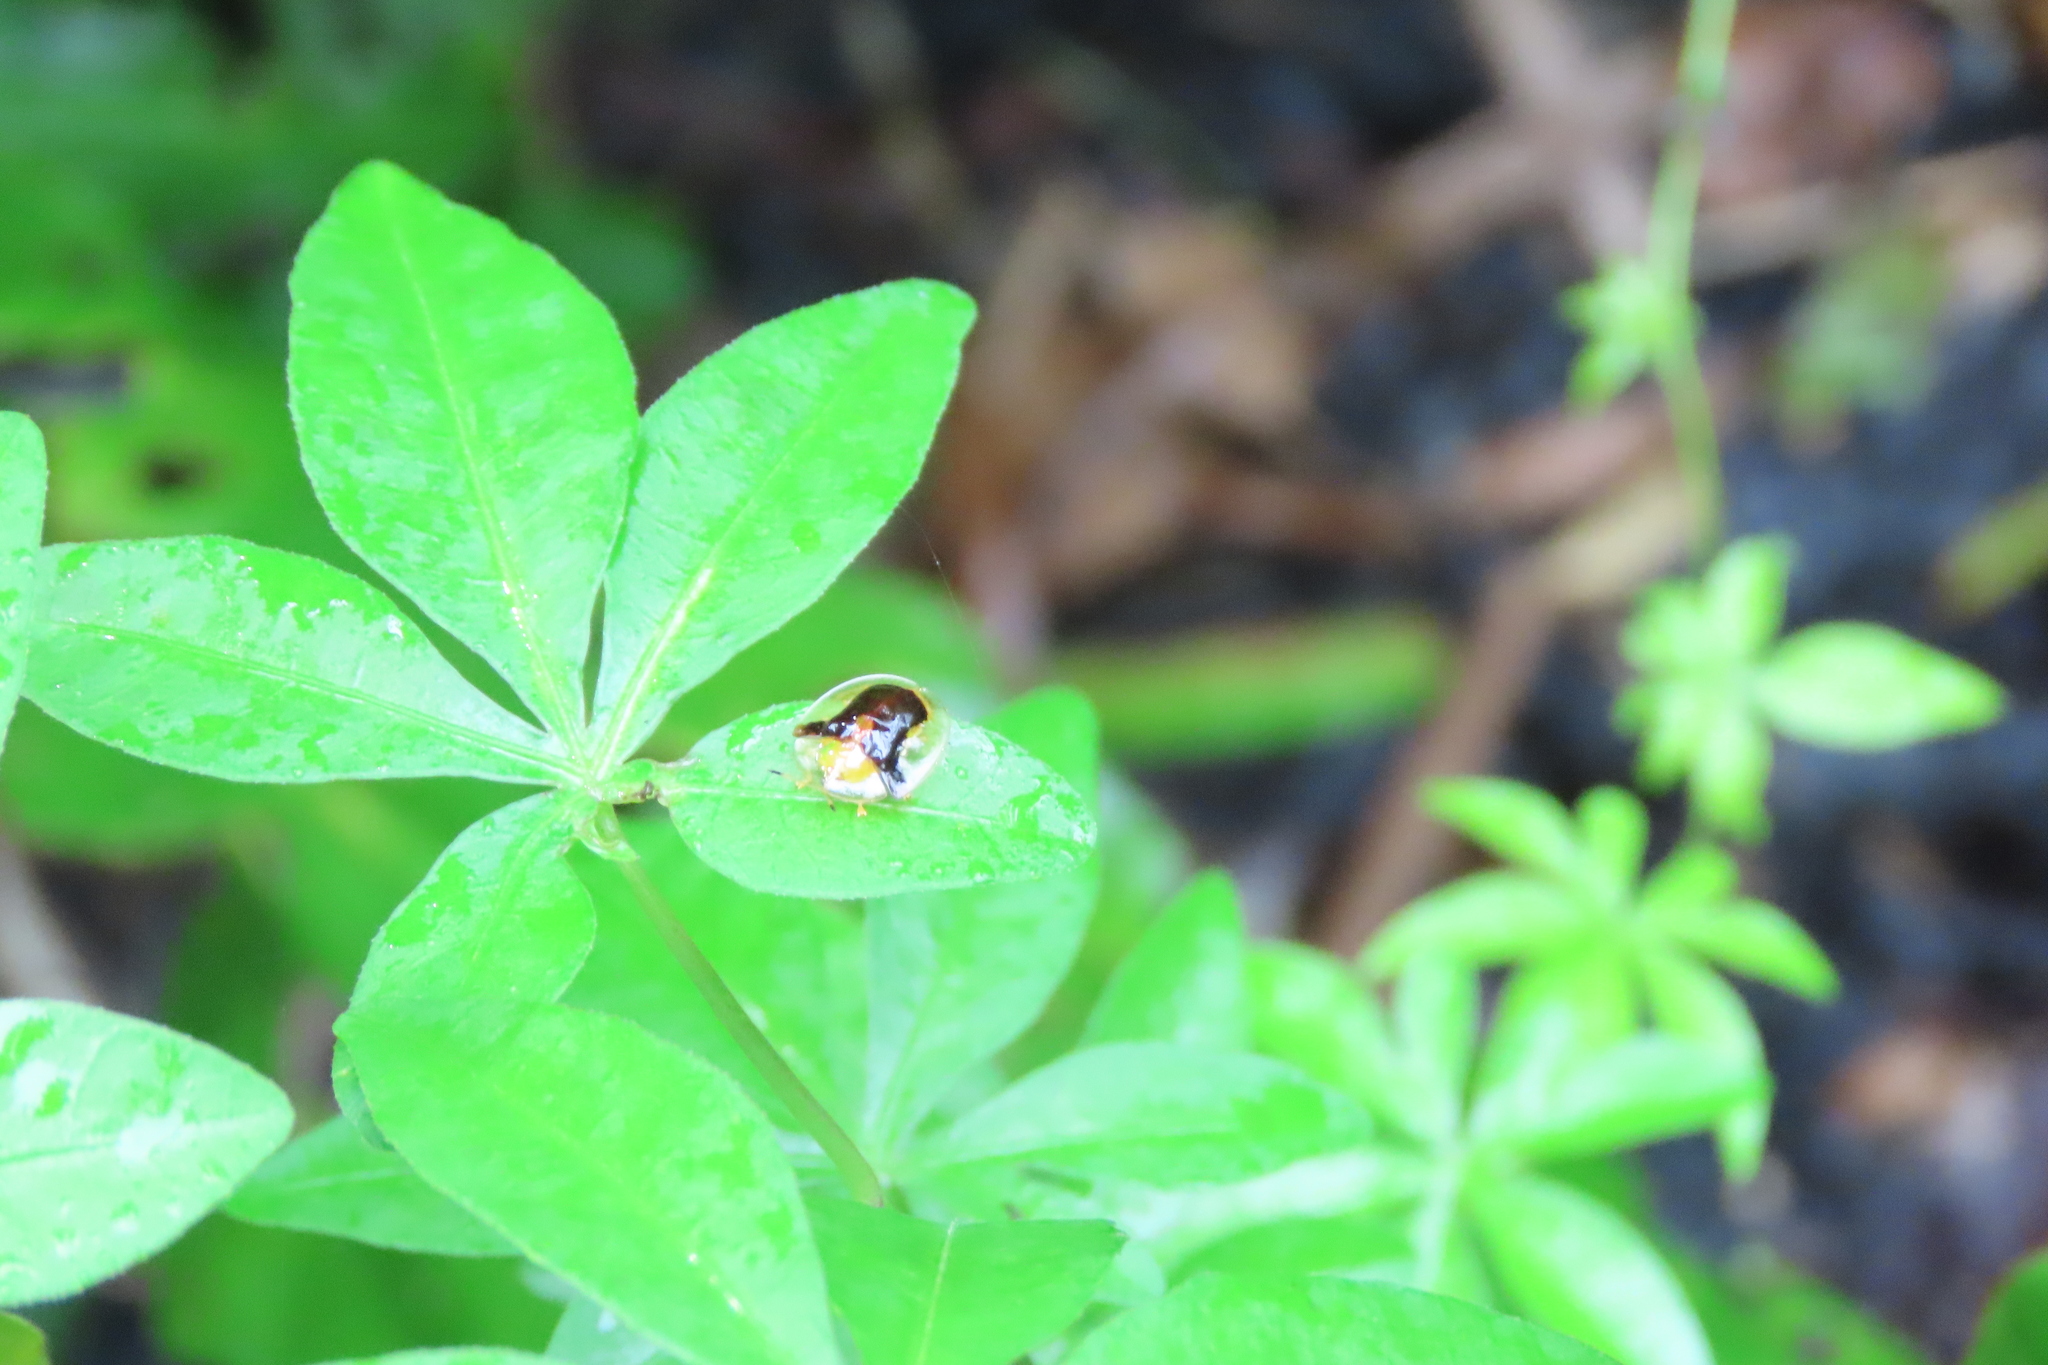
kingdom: Animalia
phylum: Arthropoda
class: Insecta
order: Coleoptera
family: Chrysomelidae
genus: Aspidimorpha
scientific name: Aspidimorpha furcata
